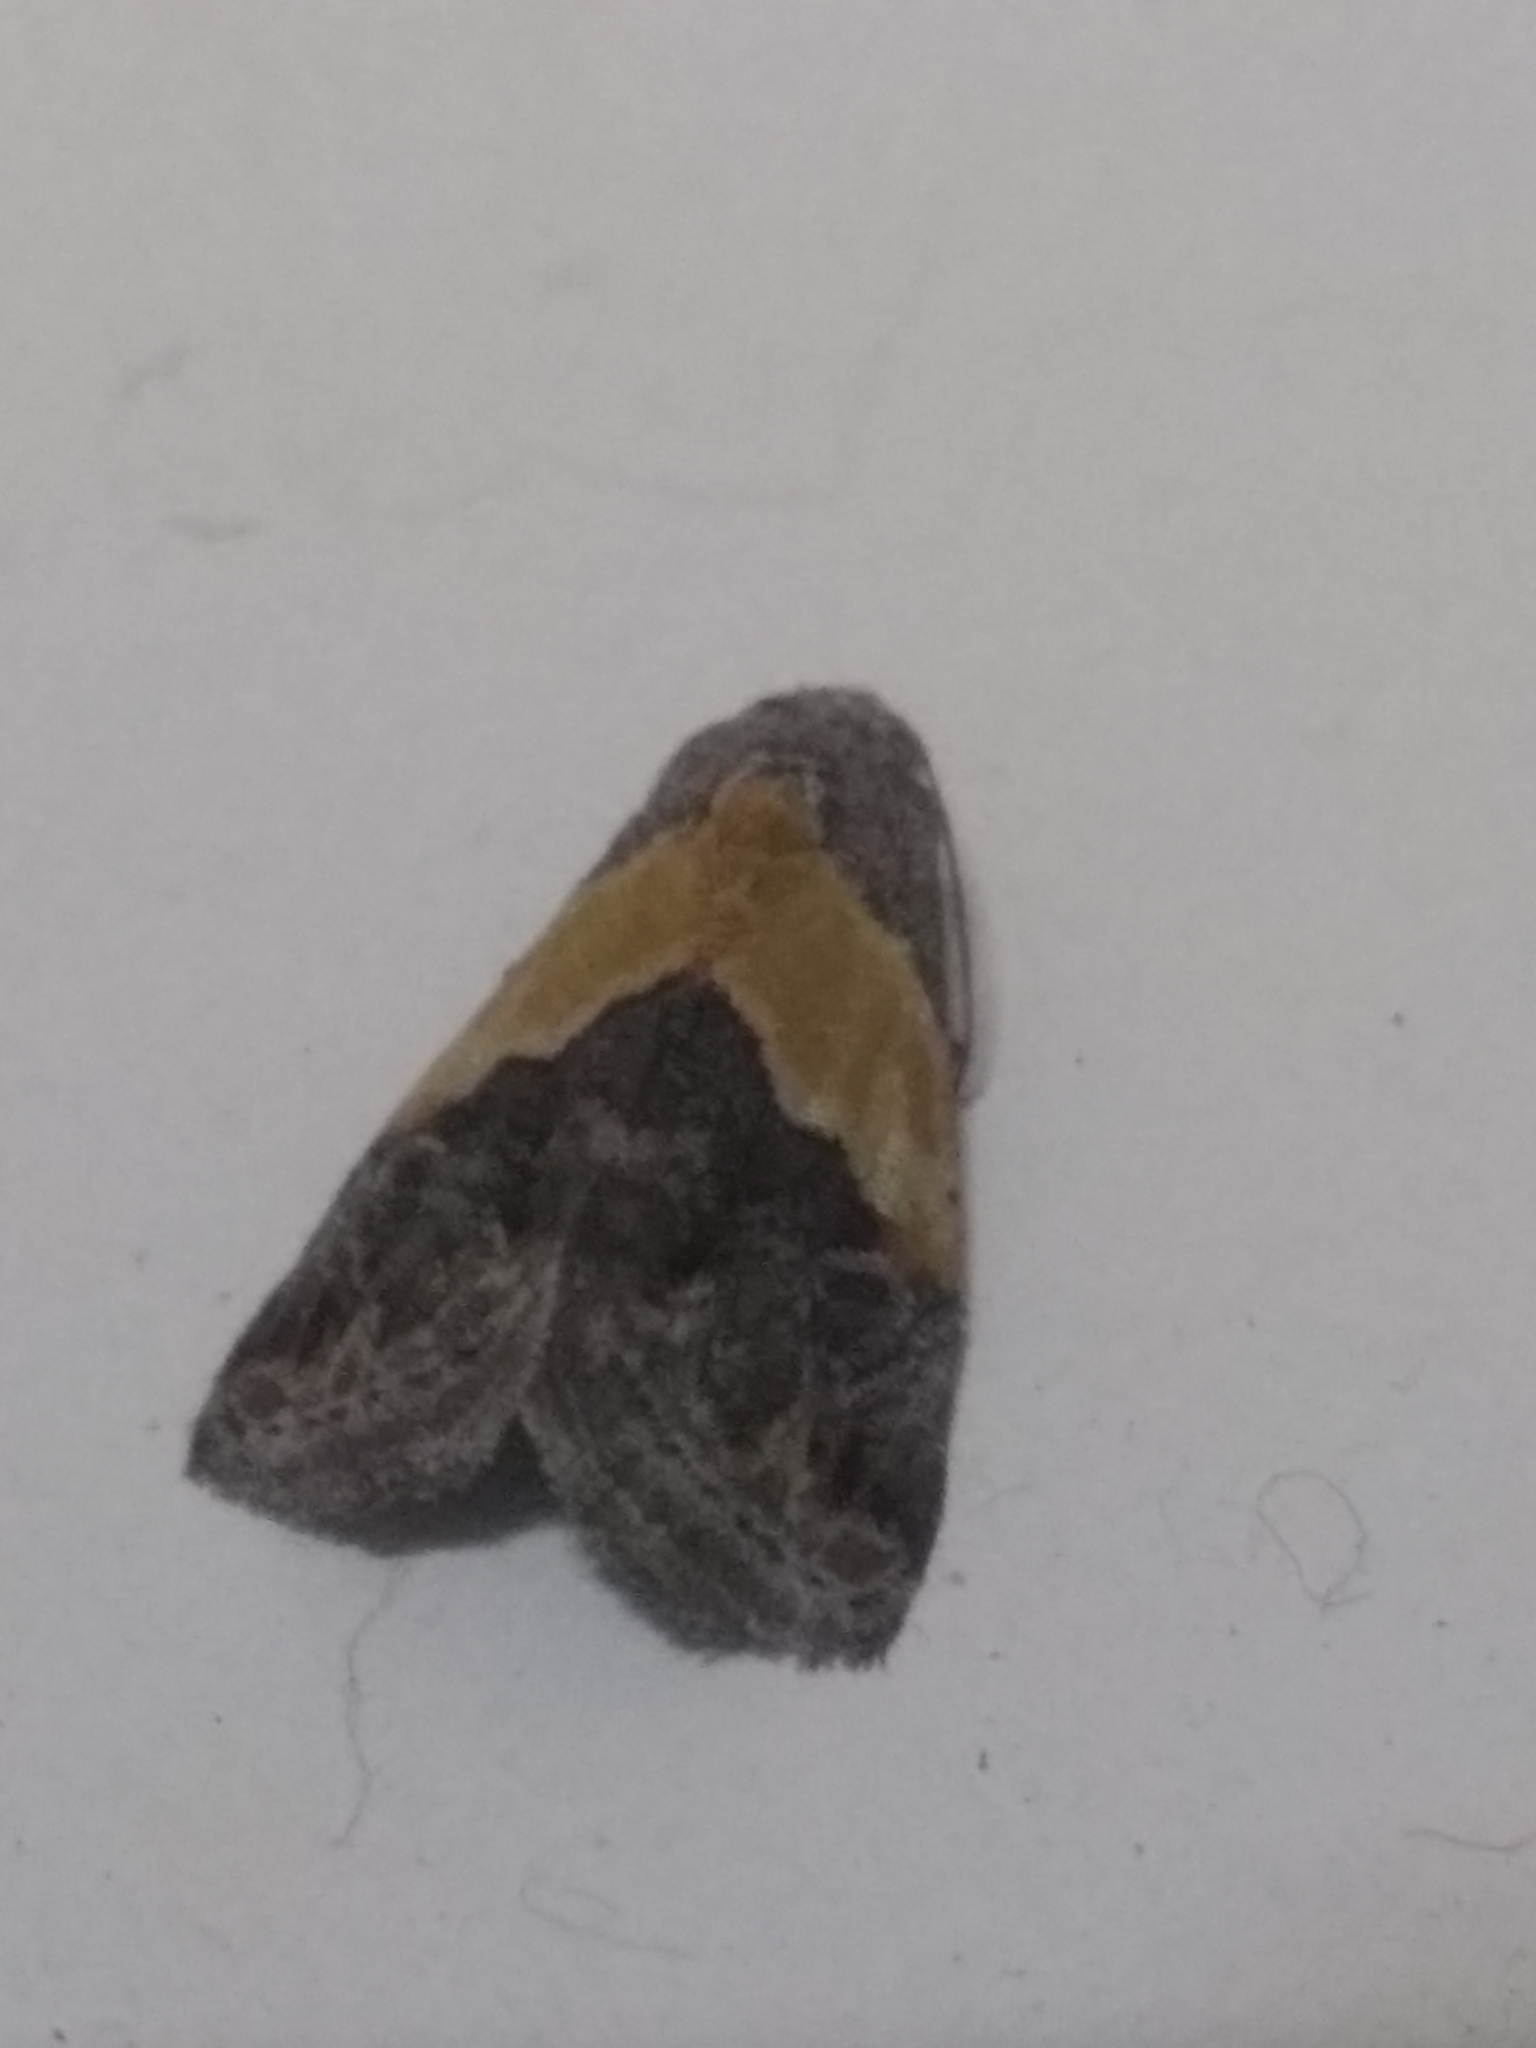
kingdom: Animalia
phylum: Arthropoda
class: Insecta
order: Lepidoptera
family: Noctuidae
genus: Tripudia
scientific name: Tripudia balteata
